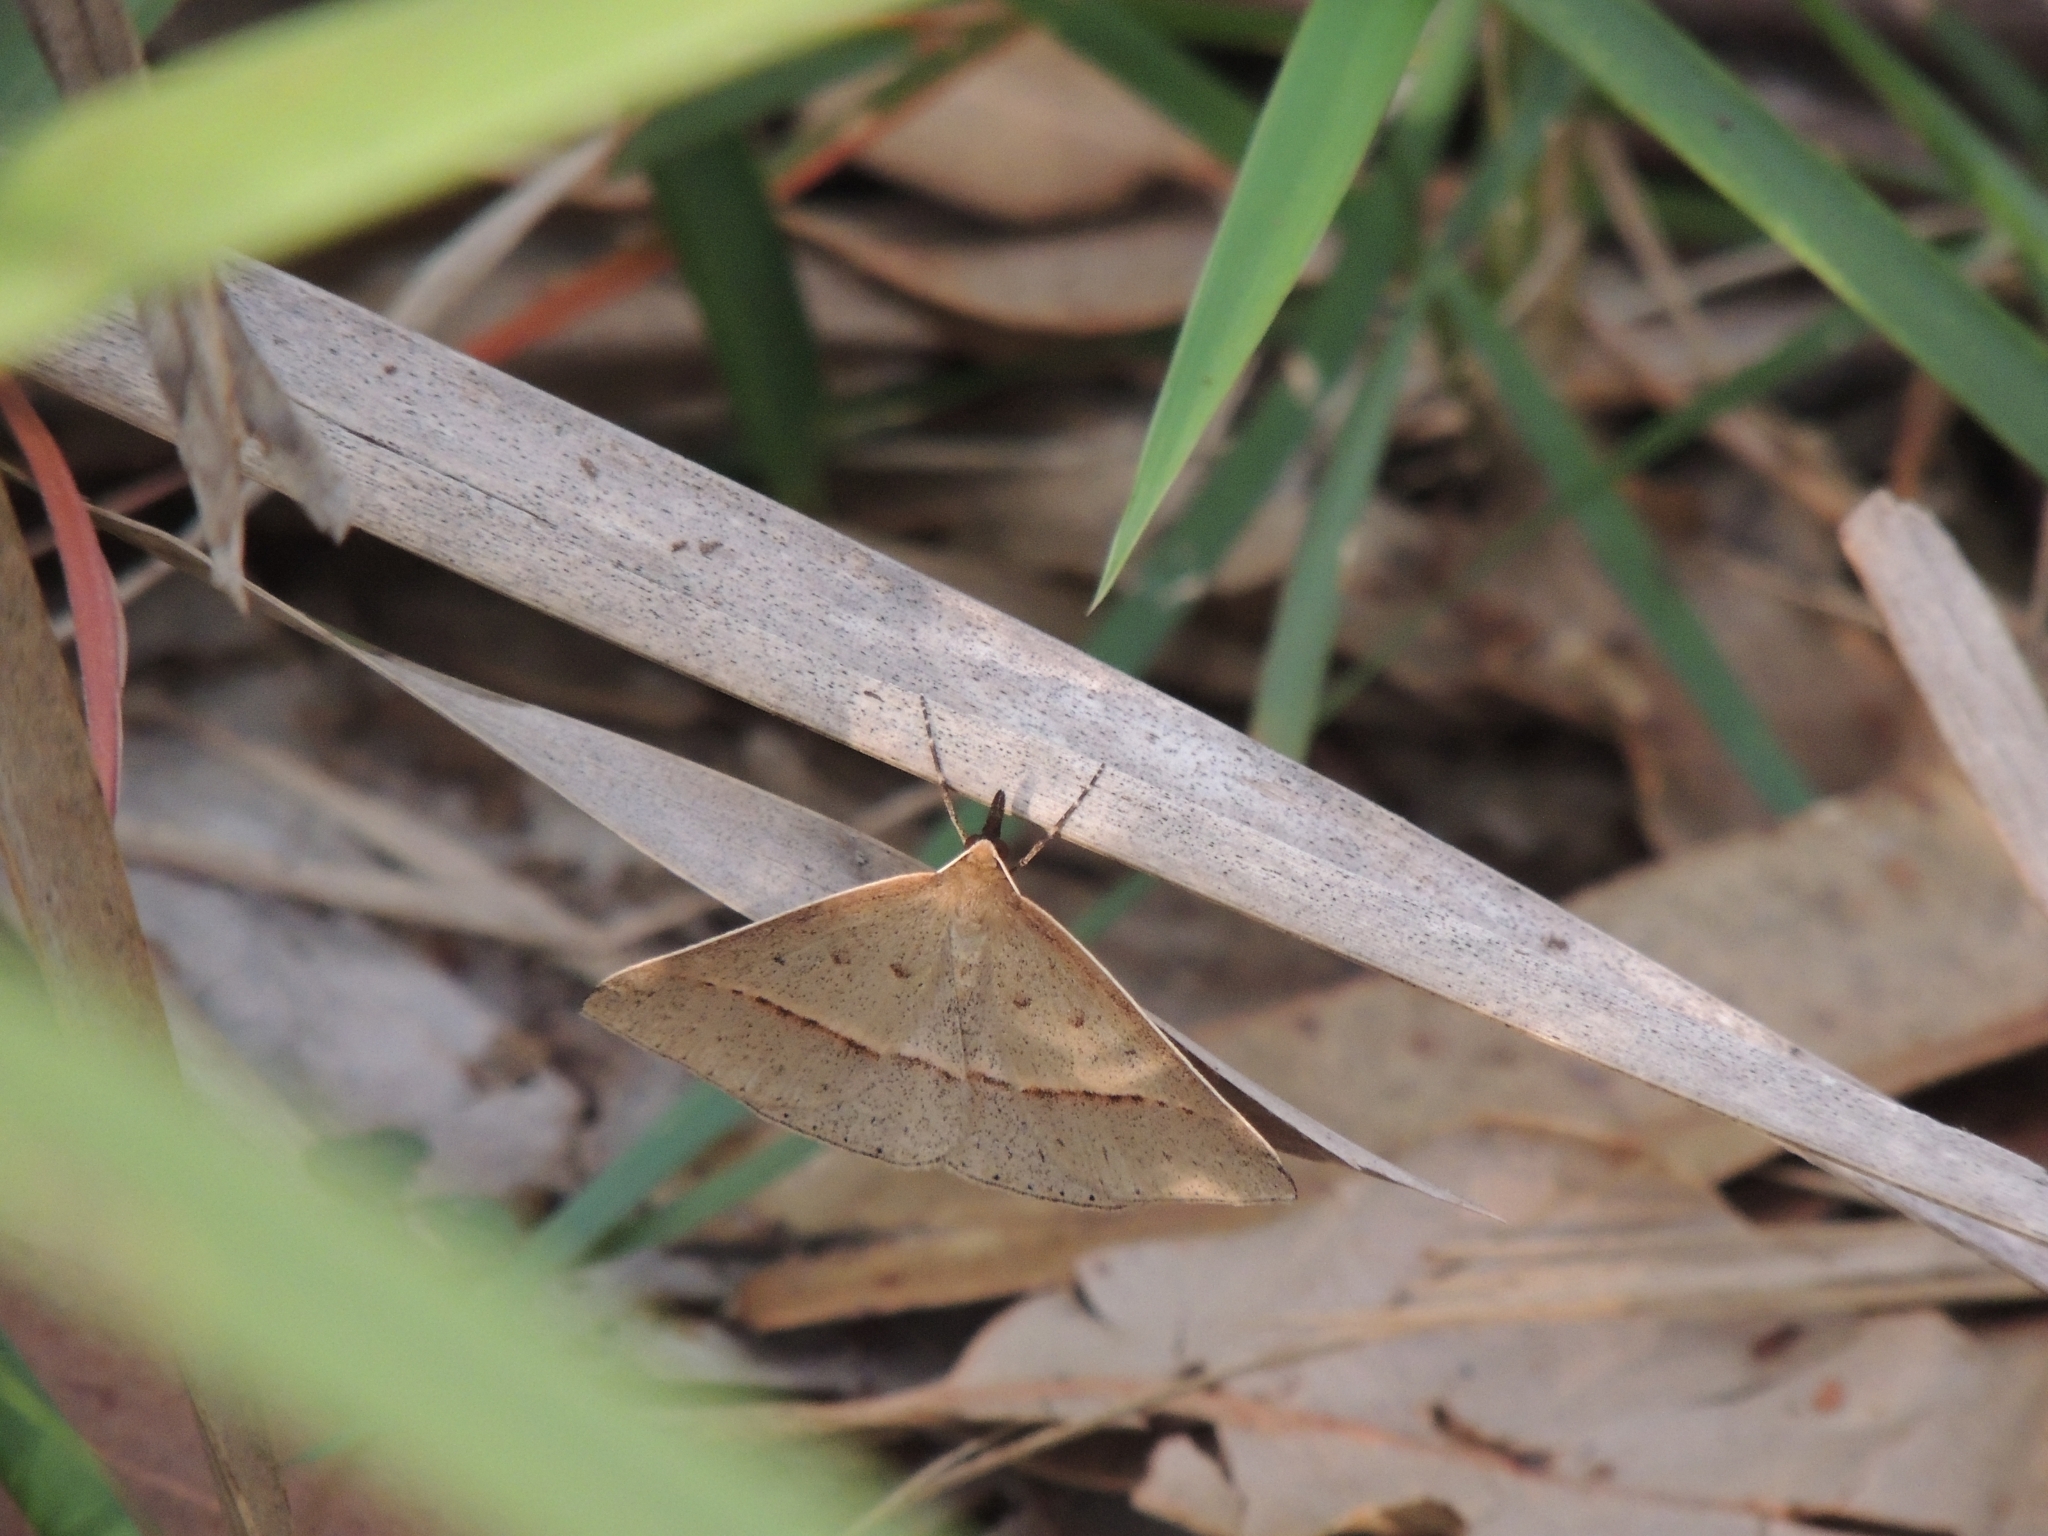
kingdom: Animalia
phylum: Arthropoda
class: Insecta
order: Lepidoptera
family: Geometridae
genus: Epidesmia
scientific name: Epidesmia tryxaria
